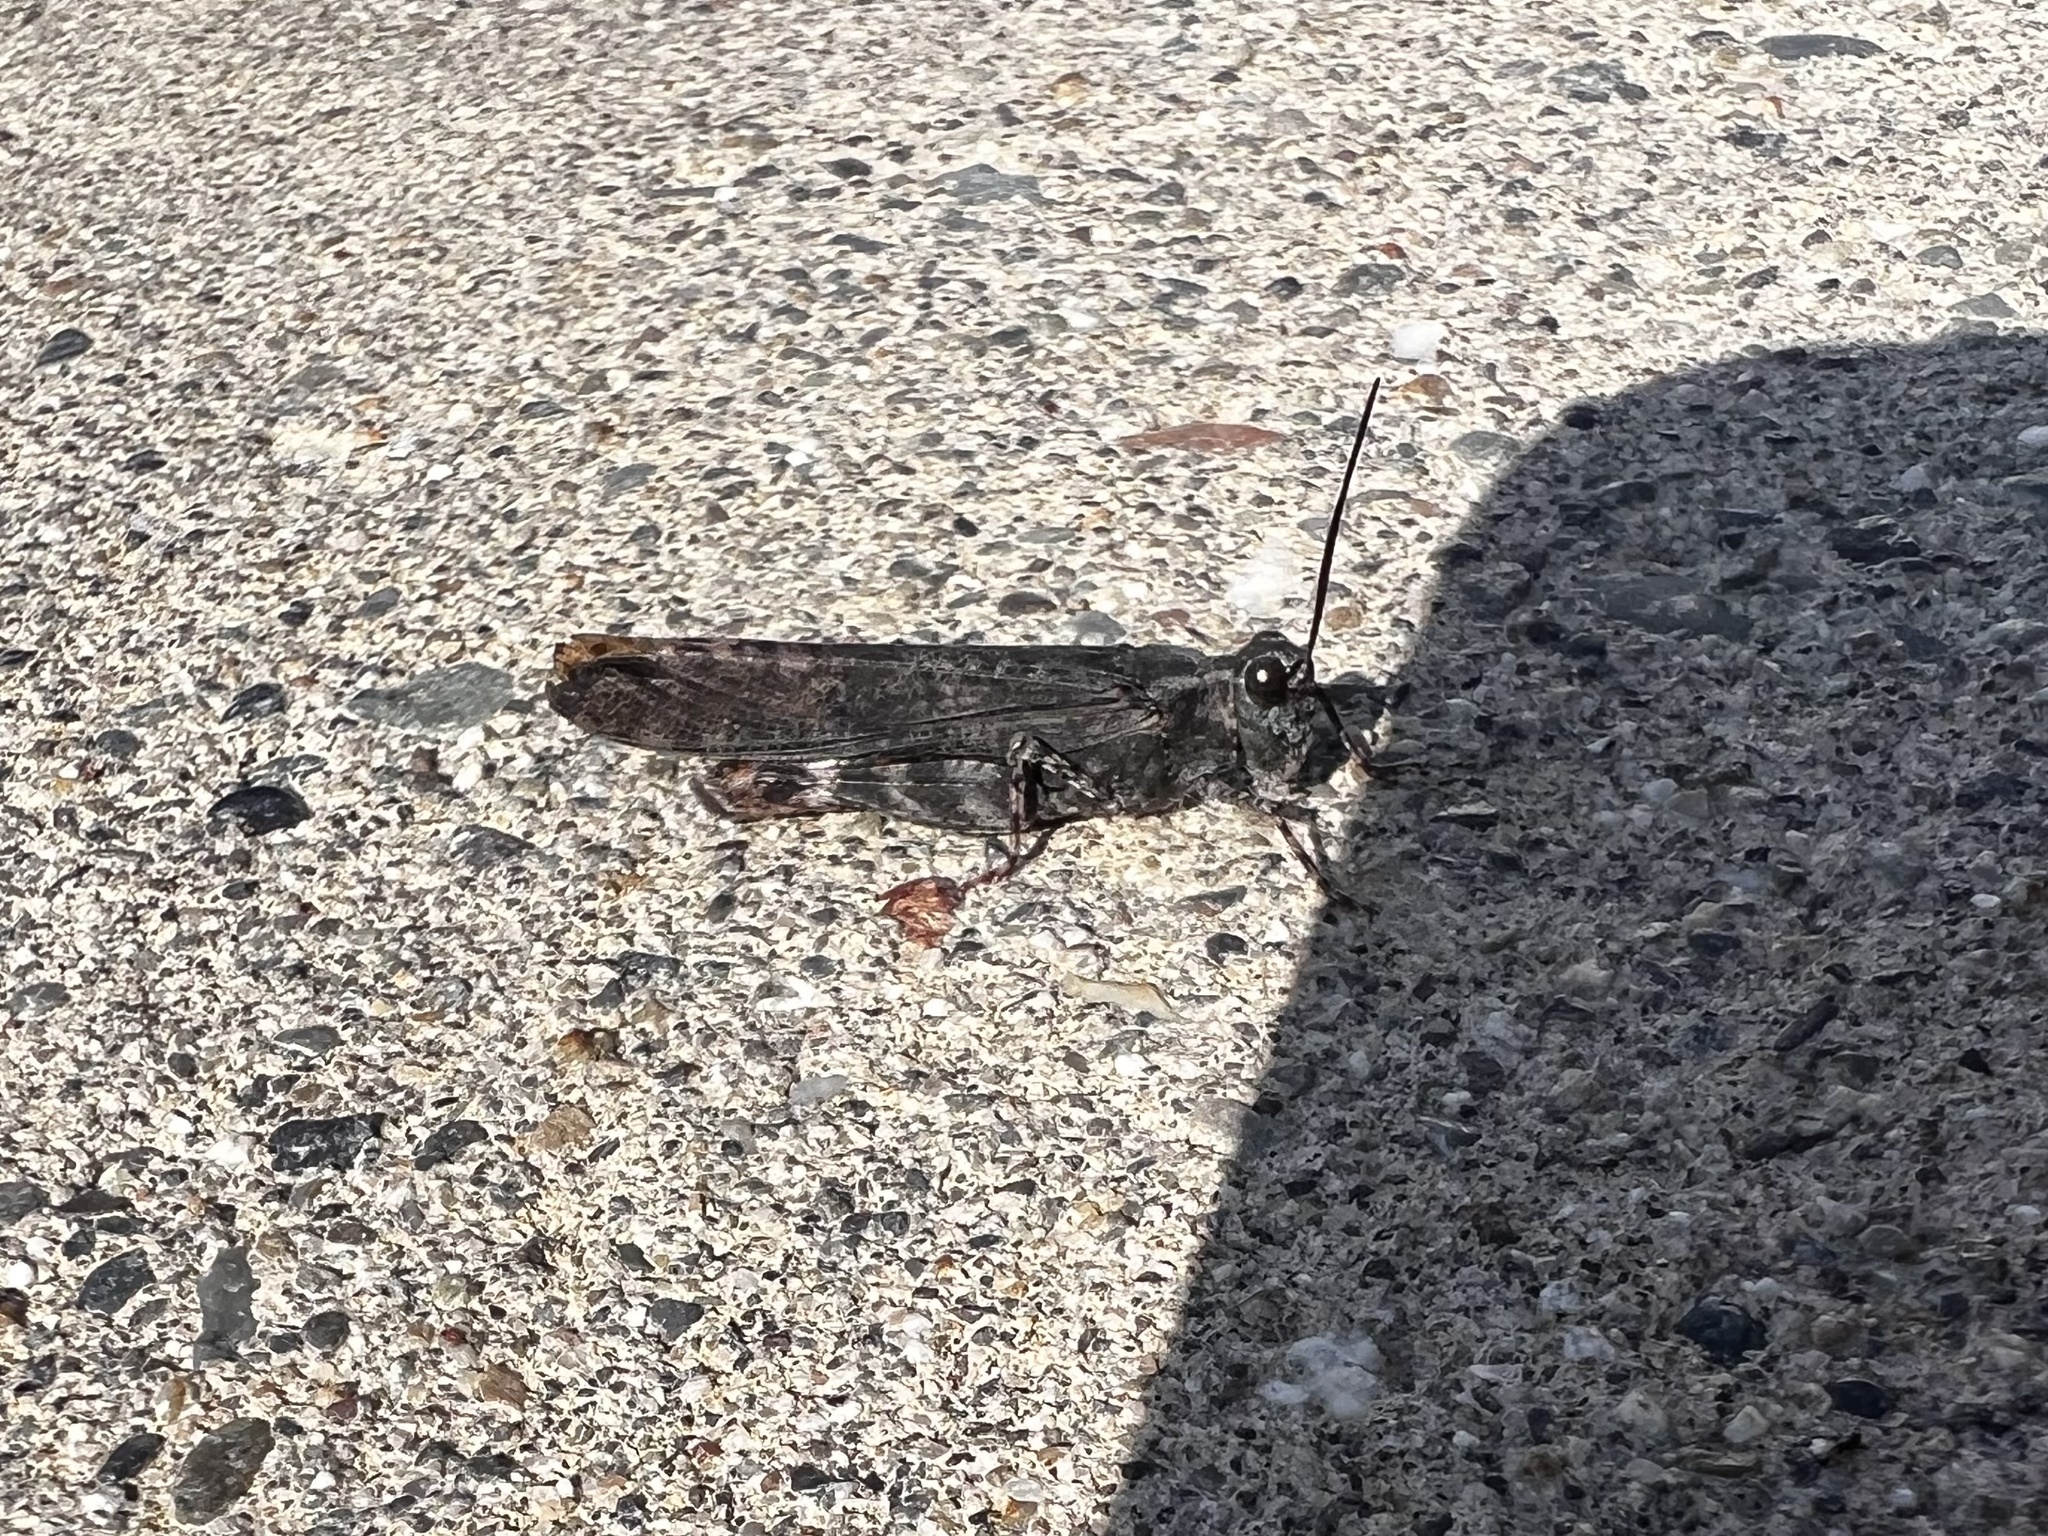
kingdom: Animalia
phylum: Arthropoda
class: Insecta
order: Orthoptera
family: Acrididae
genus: Trimerotropis
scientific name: Trimerotropis verruculata
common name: Crackling forest grasshopper
